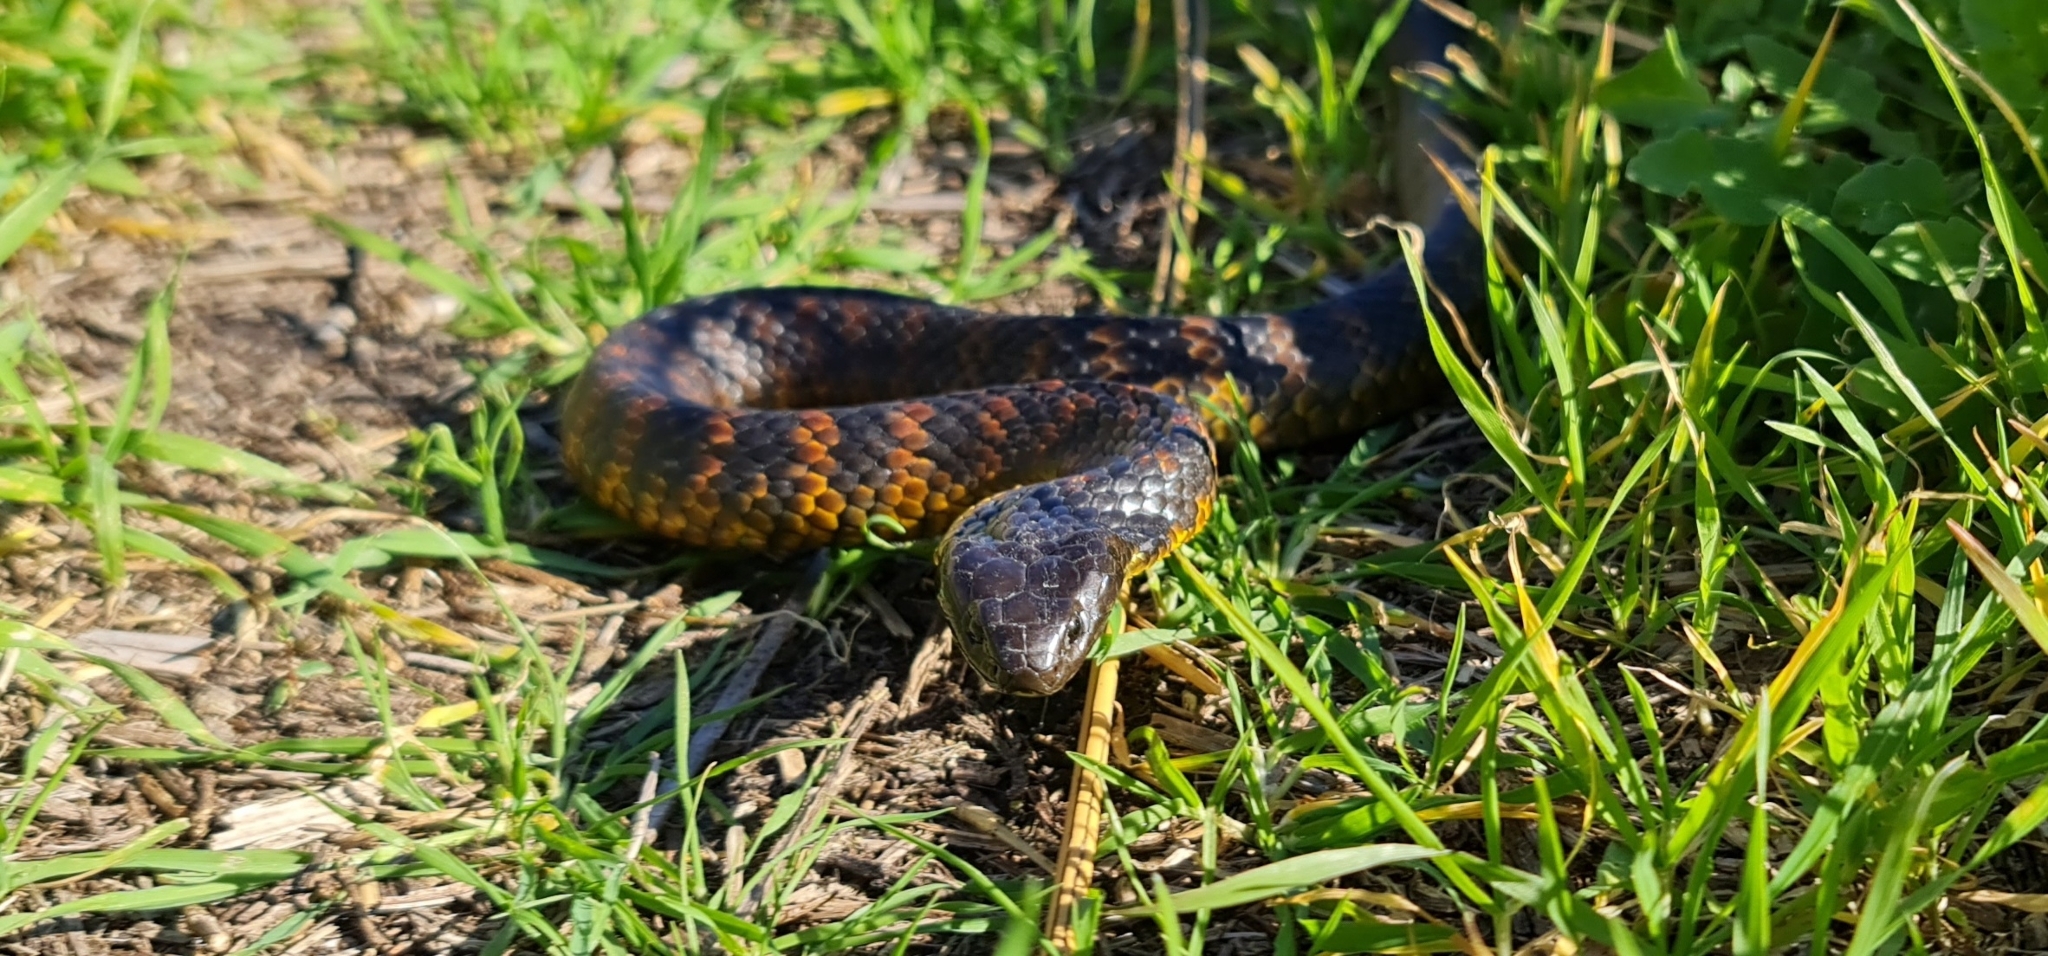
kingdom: Animalia
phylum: Chordata
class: Squamata
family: Elapidae
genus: Notechis
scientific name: Notechis scutatus
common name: Mainland tiger snake
